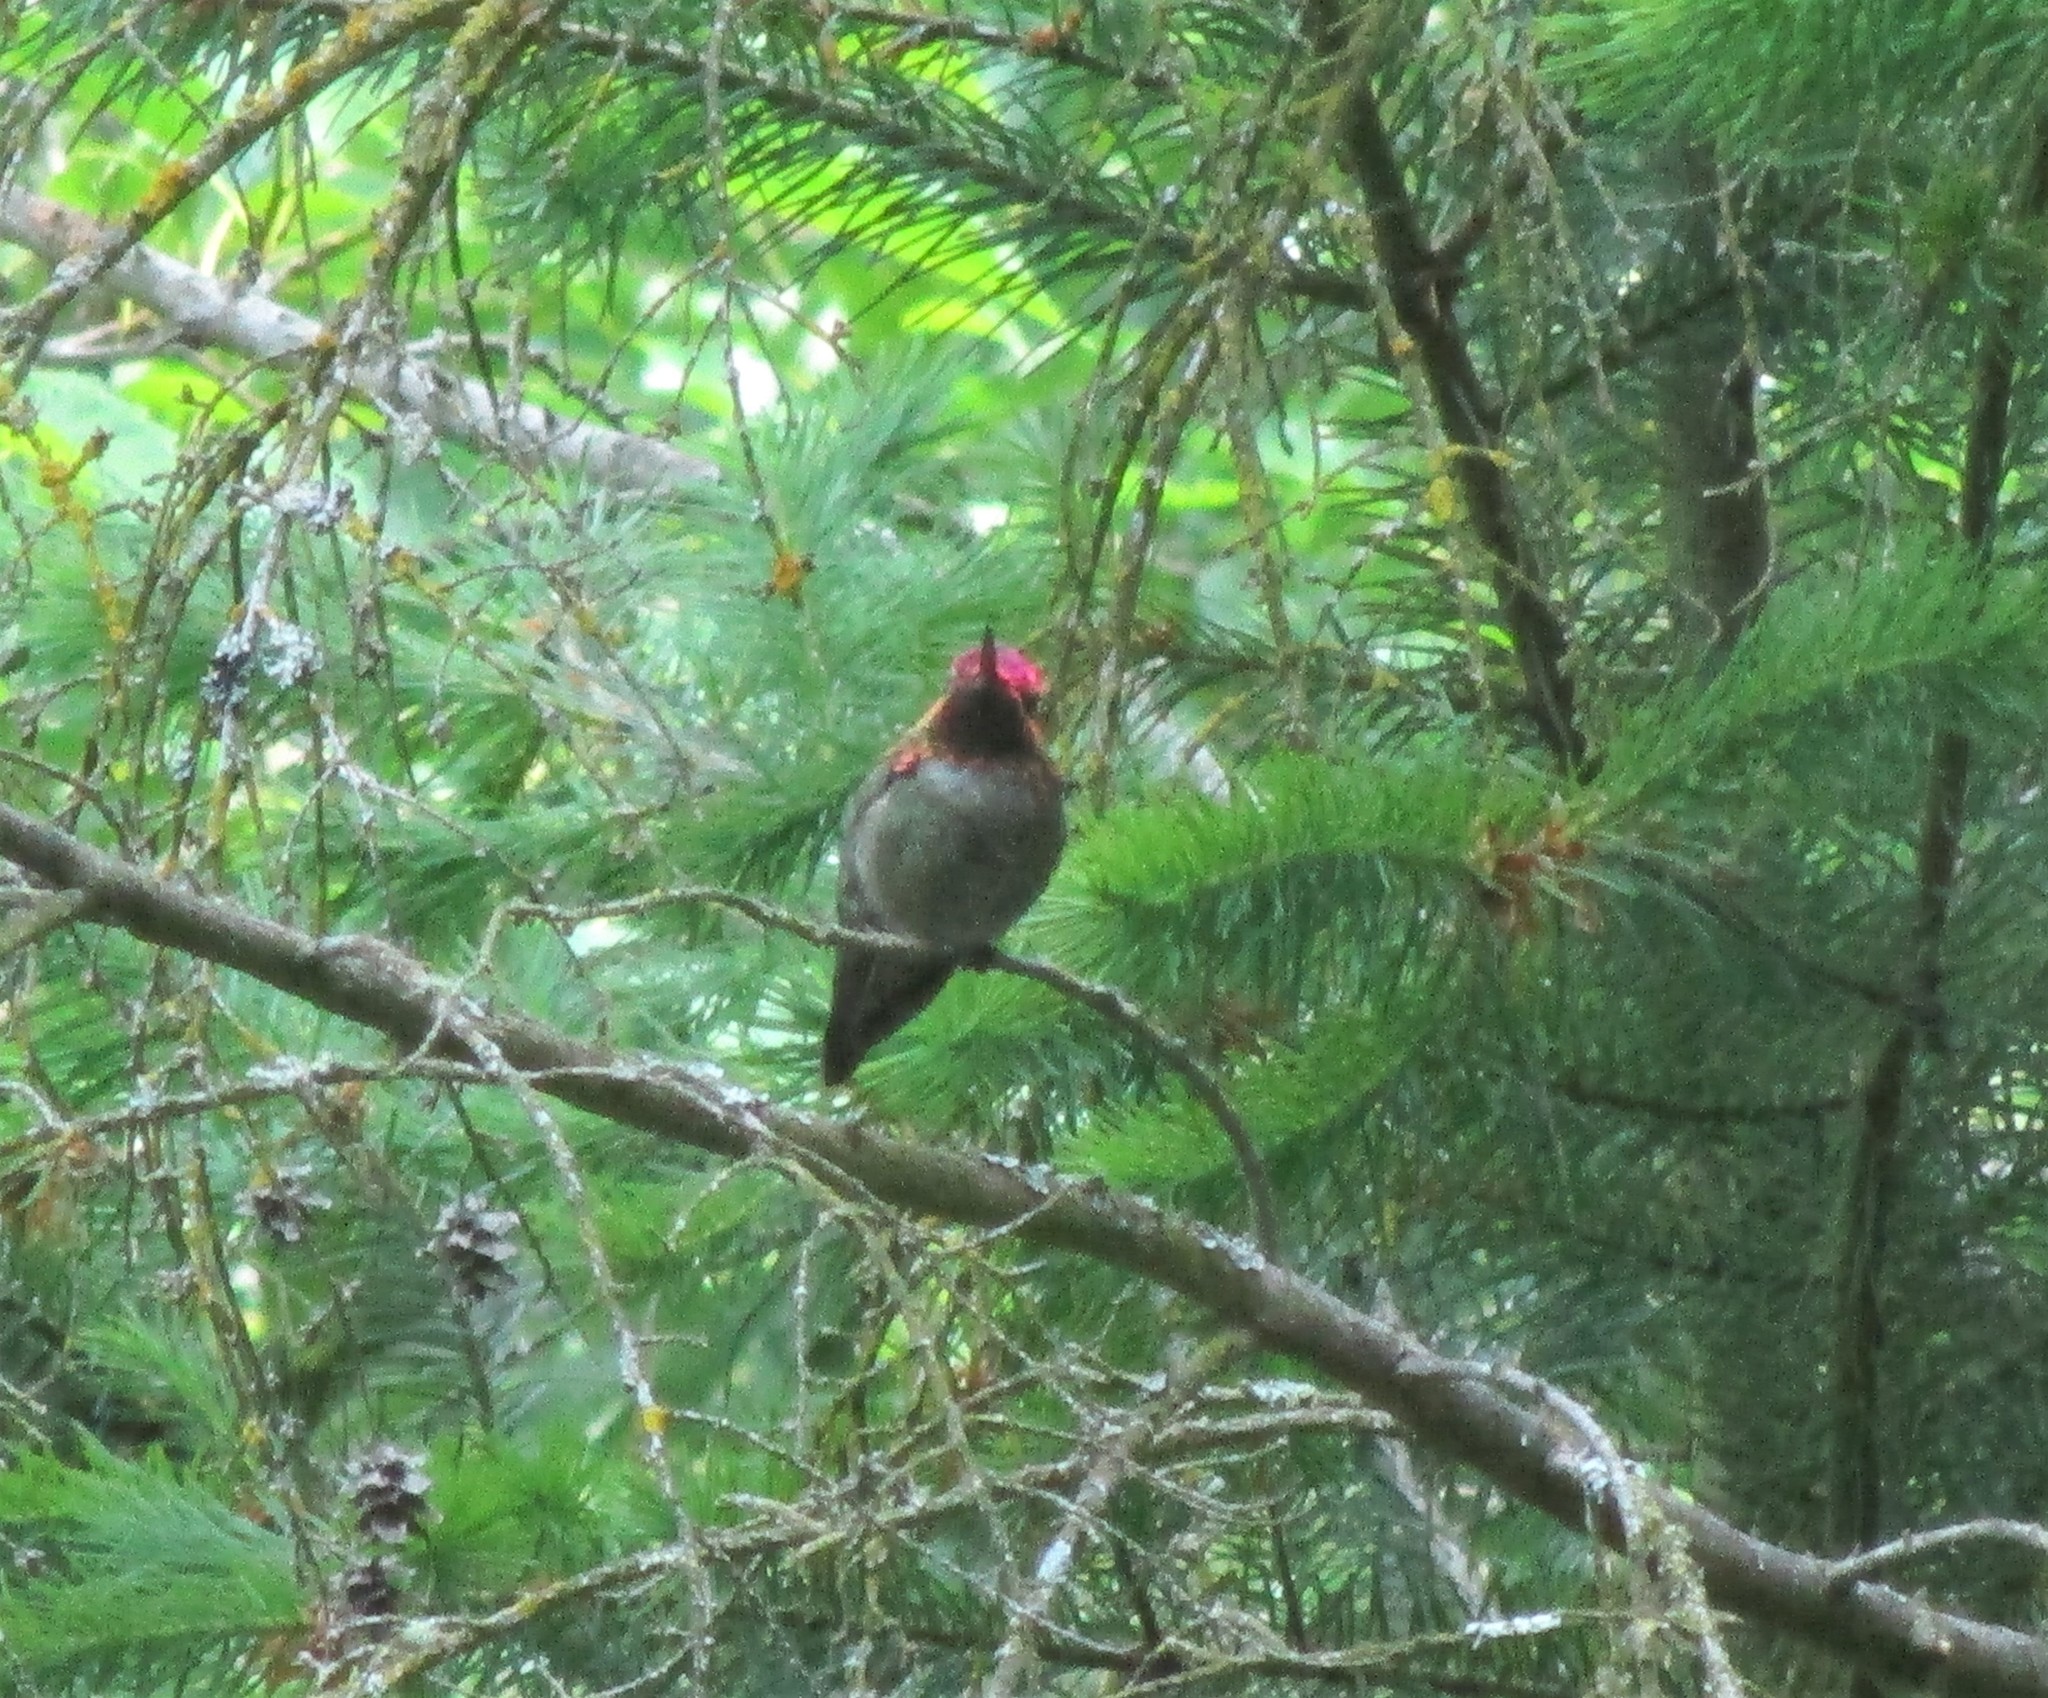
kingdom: Animalia
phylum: Chordata
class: Aves
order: Apodiformes
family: Trochilidae
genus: Calypte
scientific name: Calypte anna
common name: Anna's hummingbird
